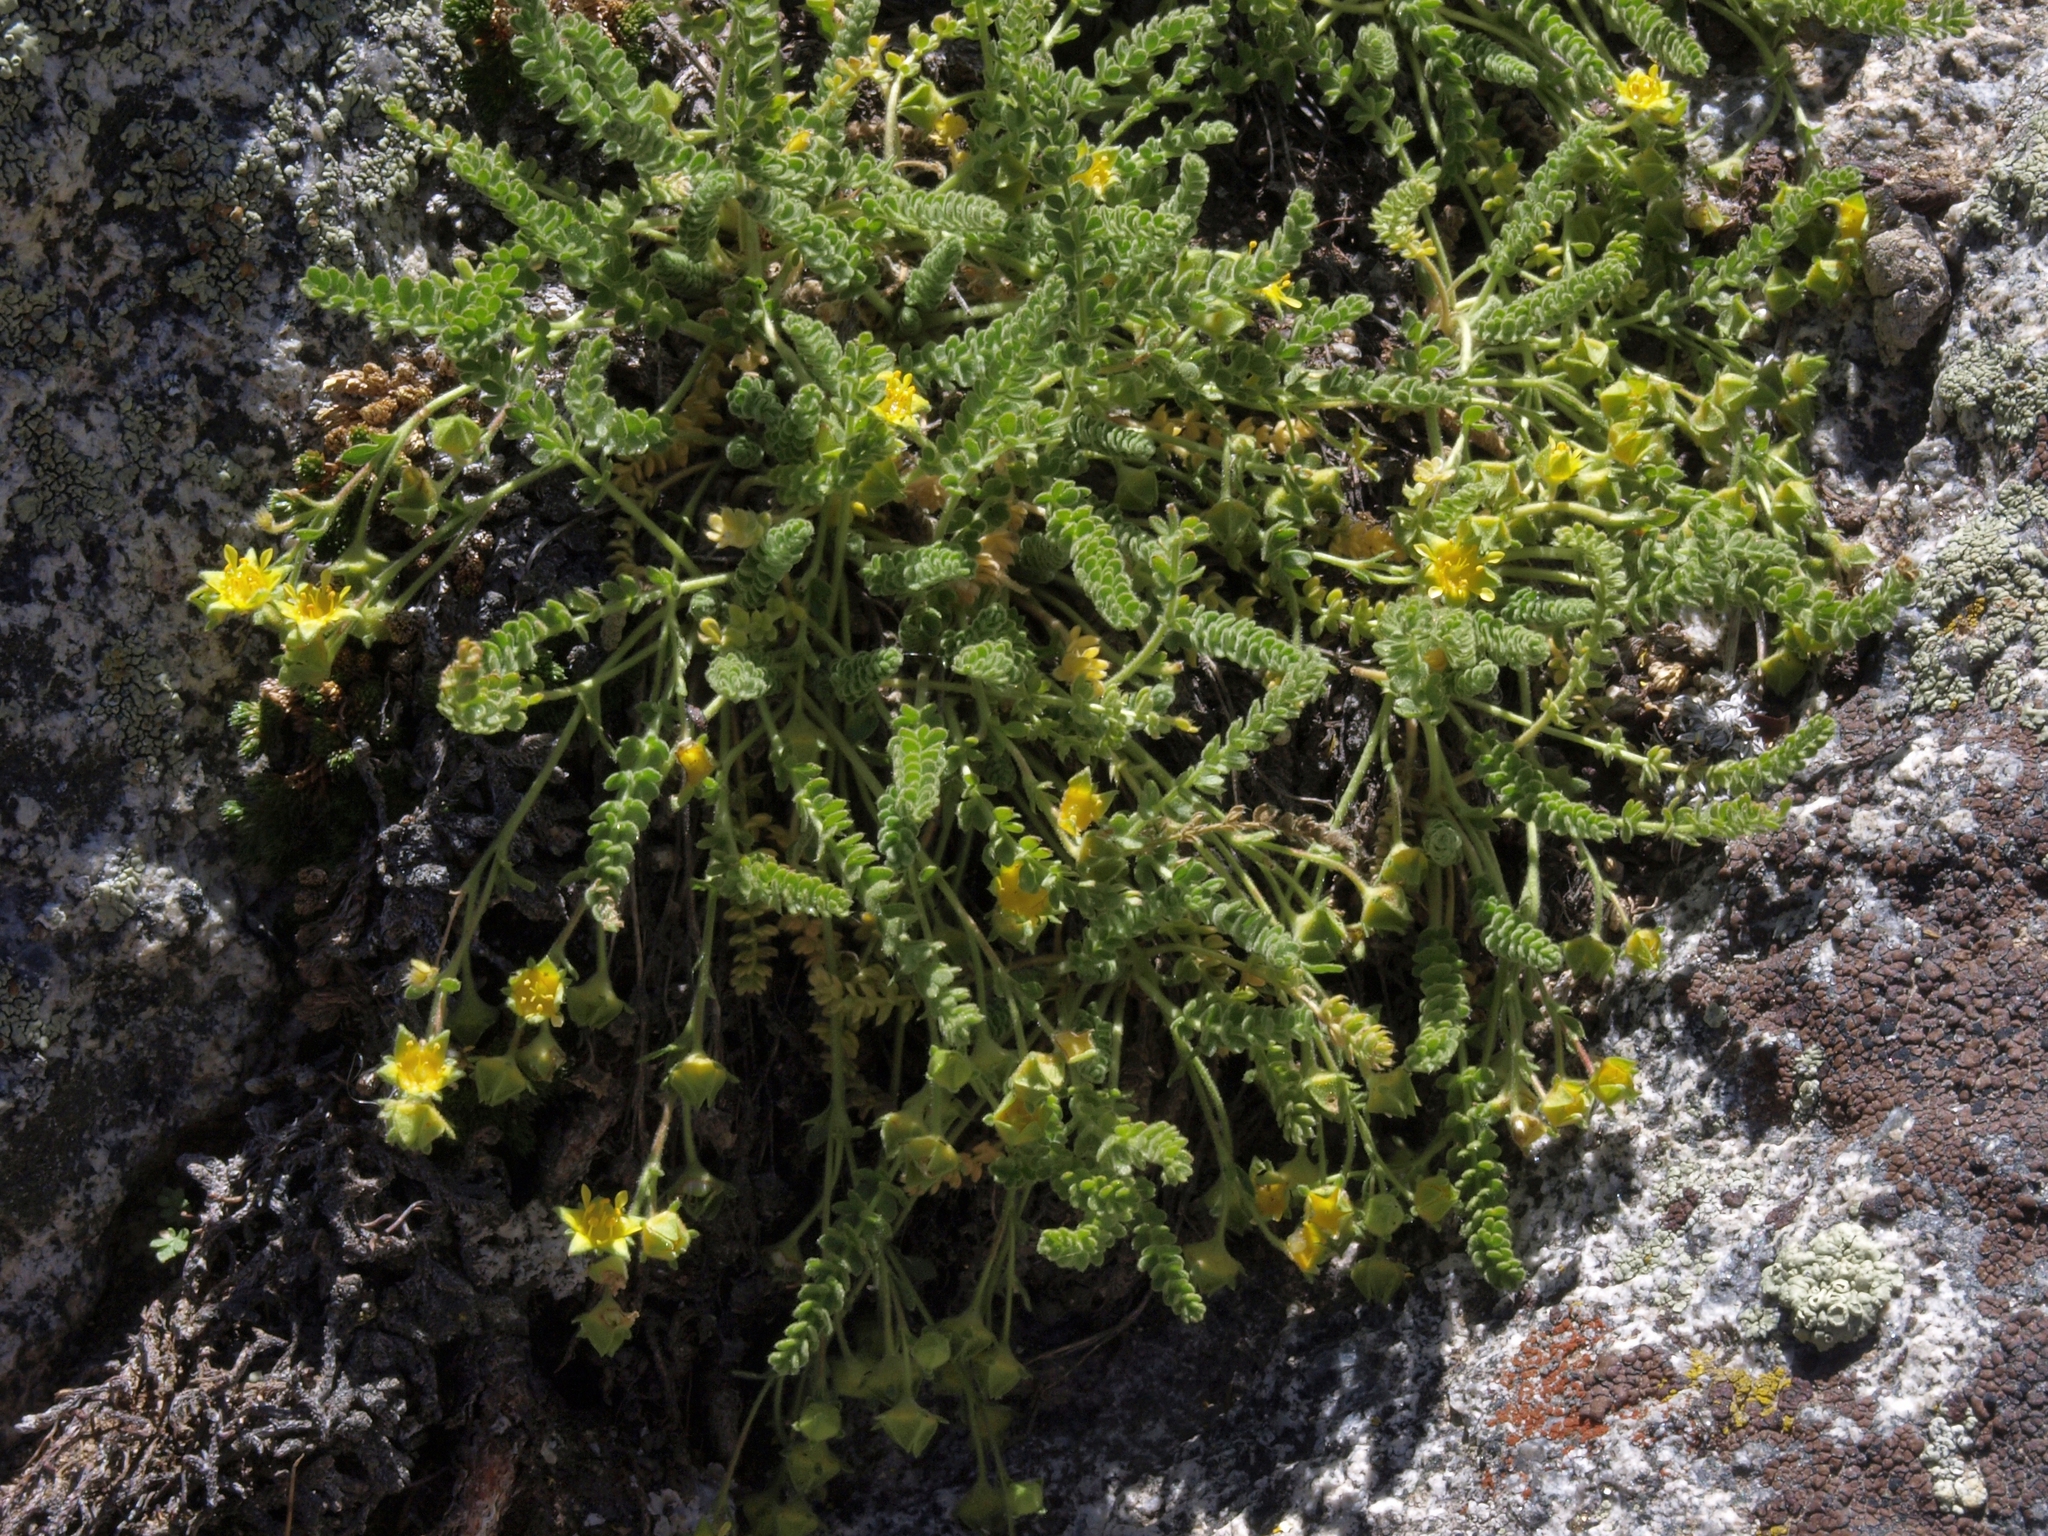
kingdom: Plantae
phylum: Tracheophyta
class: Magnoliopsida
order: Rosales
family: Rosaceae
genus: Potentilla
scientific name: Potentilla shockleyi
